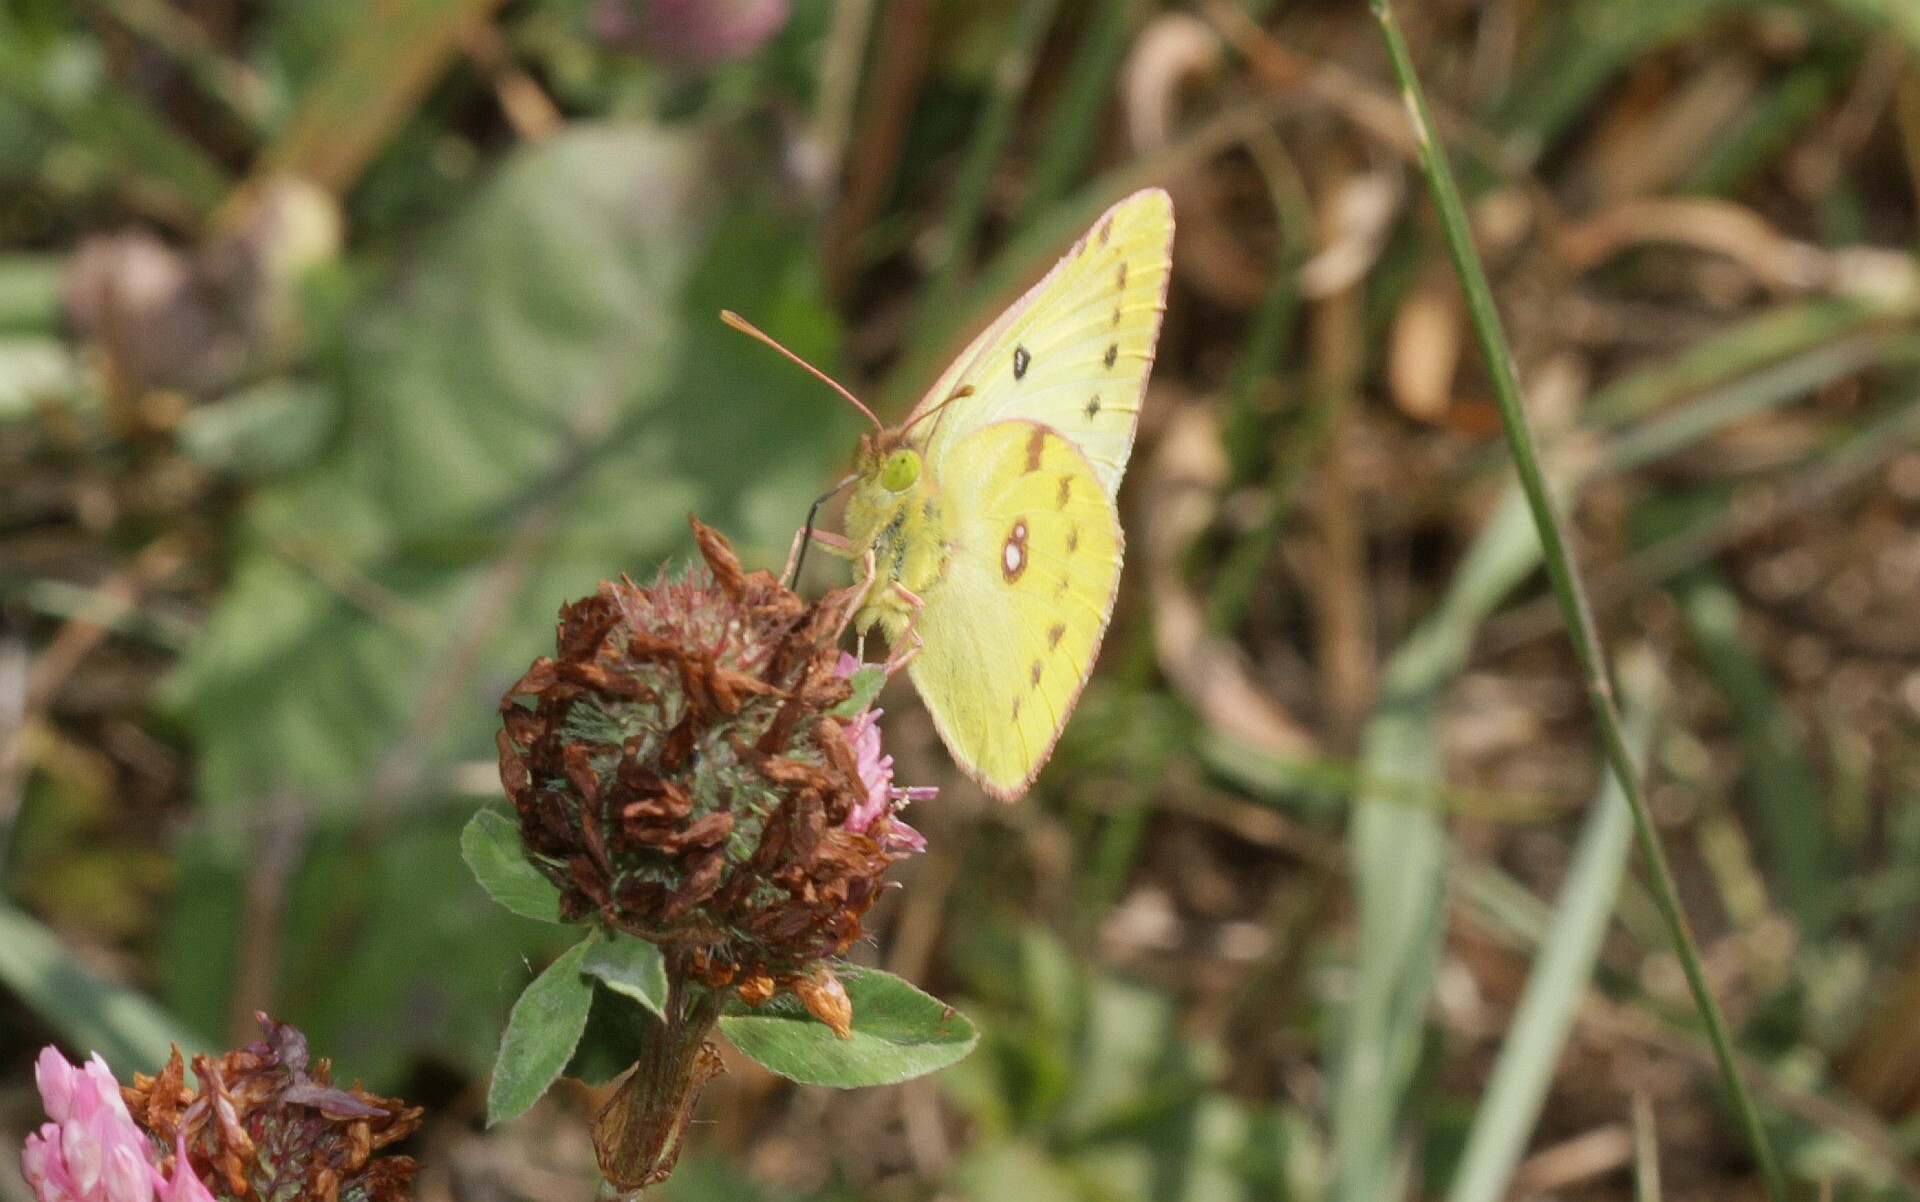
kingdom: Animalia
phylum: Arthropoda
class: Insecta
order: Lepidoptera
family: Pieridae
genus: Colias
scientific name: Colias hyale
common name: Pale clouded yellow
